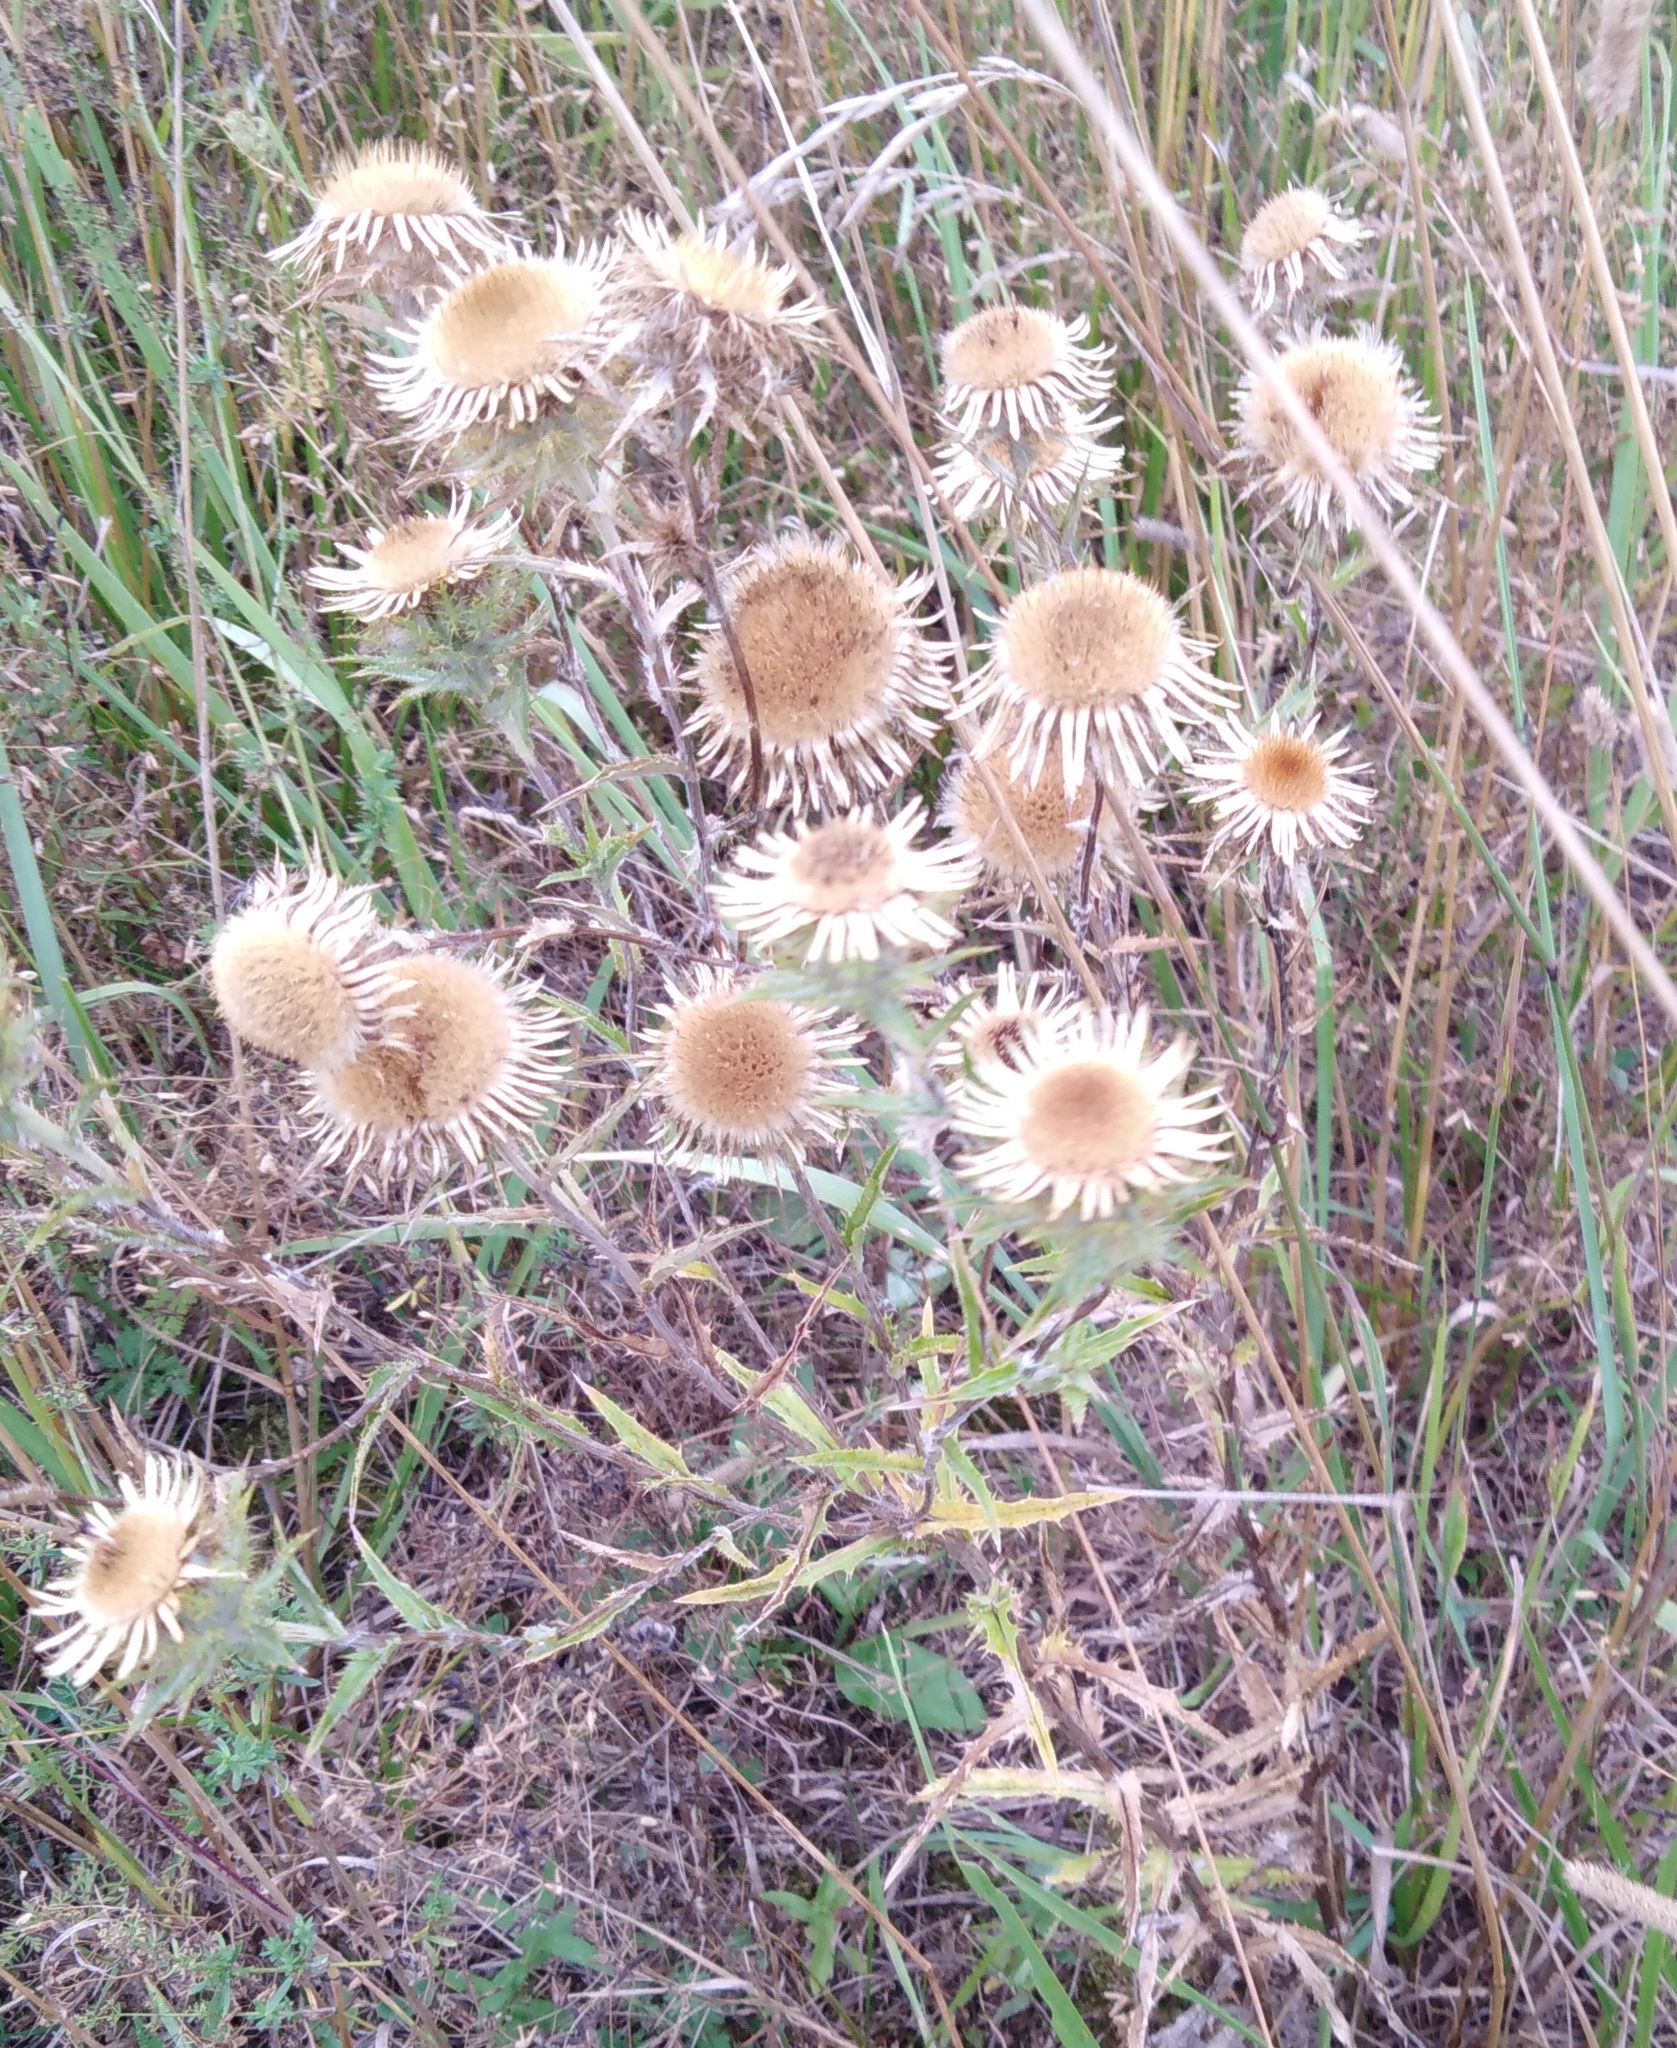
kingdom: Plantae
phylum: Tracheophyta
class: Magnoliopsida
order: Asterales
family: Asteraceae
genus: Carlina
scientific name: Carlina biebersteinii
